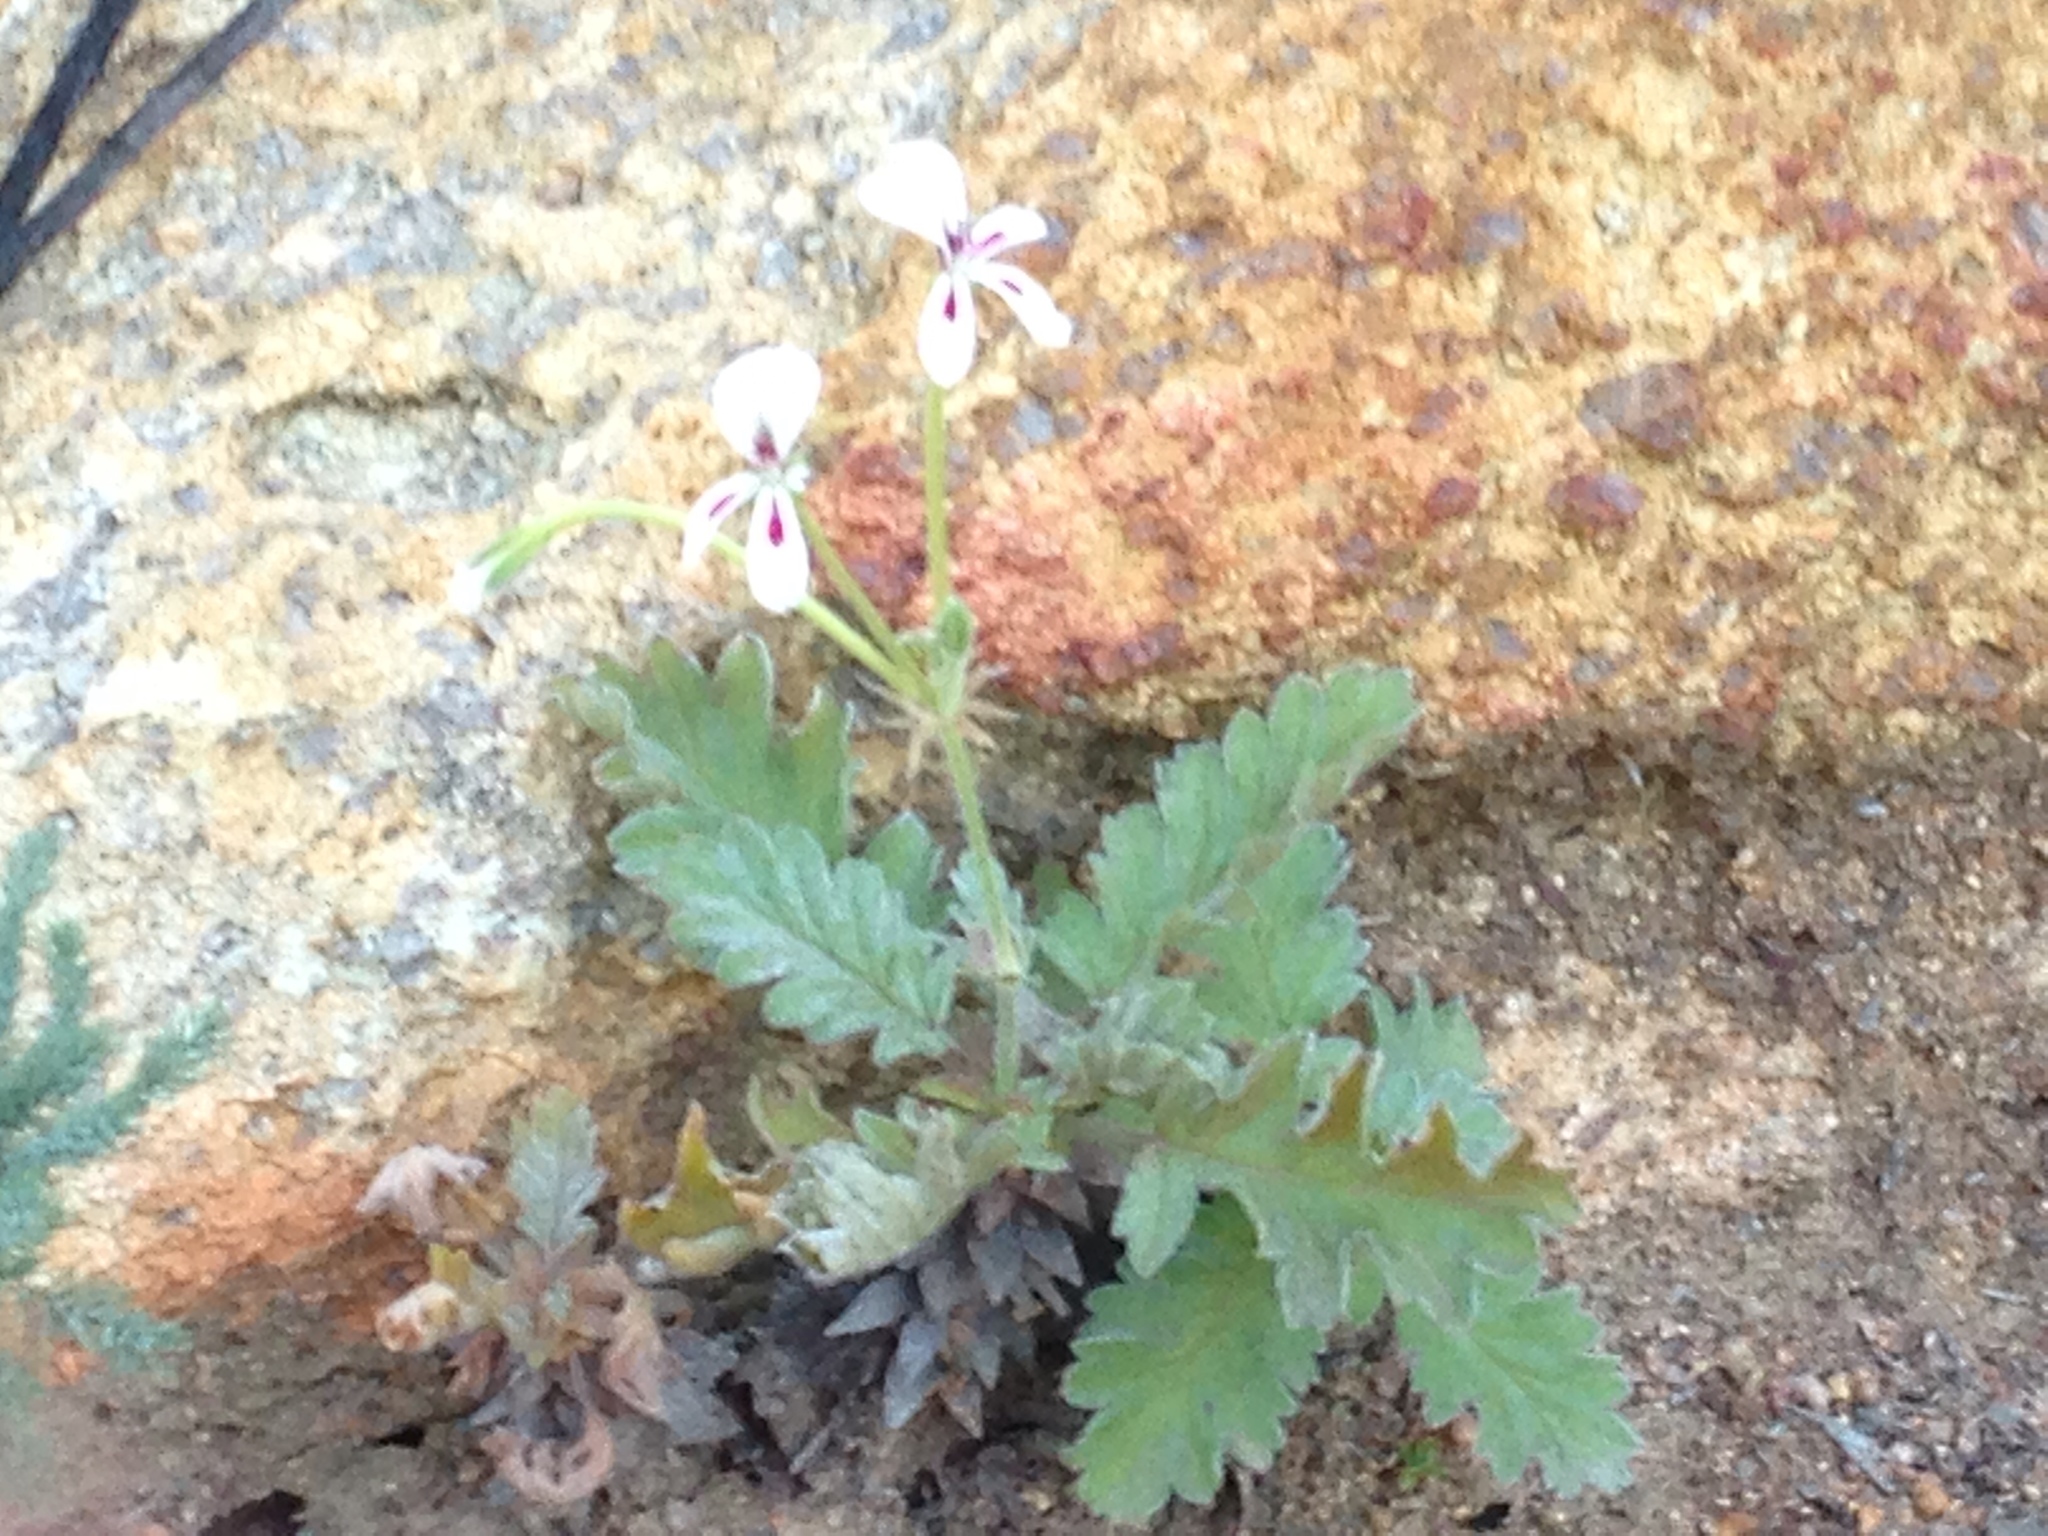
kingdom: Plantae
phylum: Tracheophyta
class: Magnoliopsida
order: Geraniales
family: Geraniaceae
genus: Pelargonium
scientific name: Pelargonium pulchellum
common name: Nonesuch pelargonium
